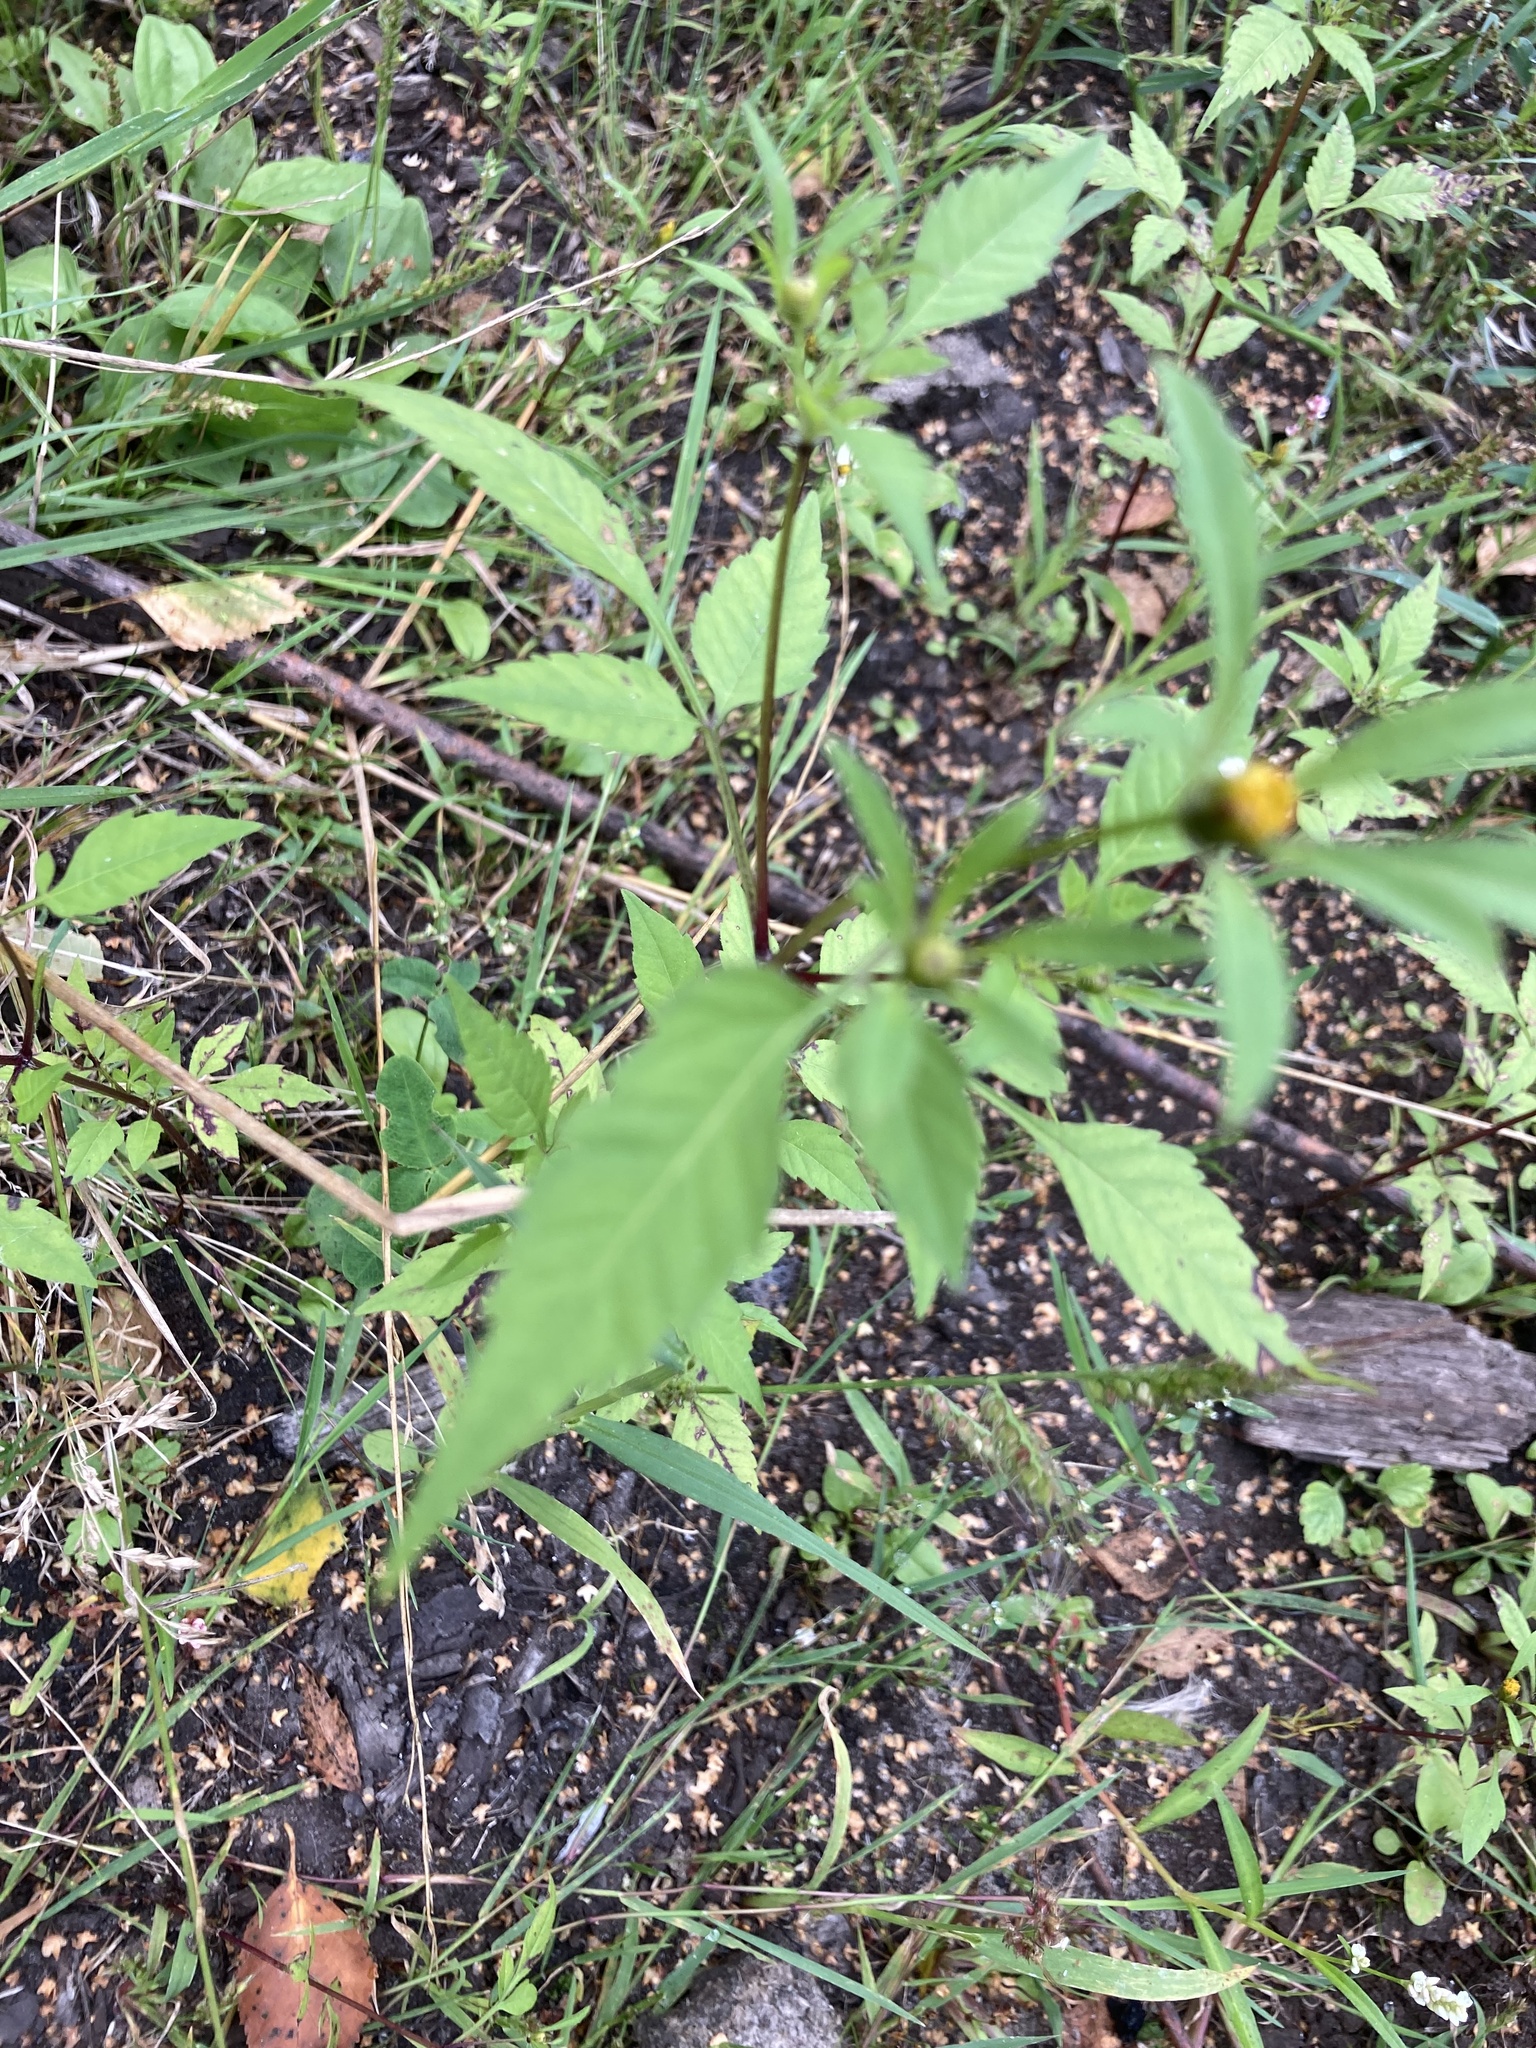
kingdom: Plantae
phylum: Tracheophyta
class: Magnoliopsida
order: Asterales
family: Asteraceae
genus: Bidens
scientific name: Bidens frondosa
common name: Beggarticks
